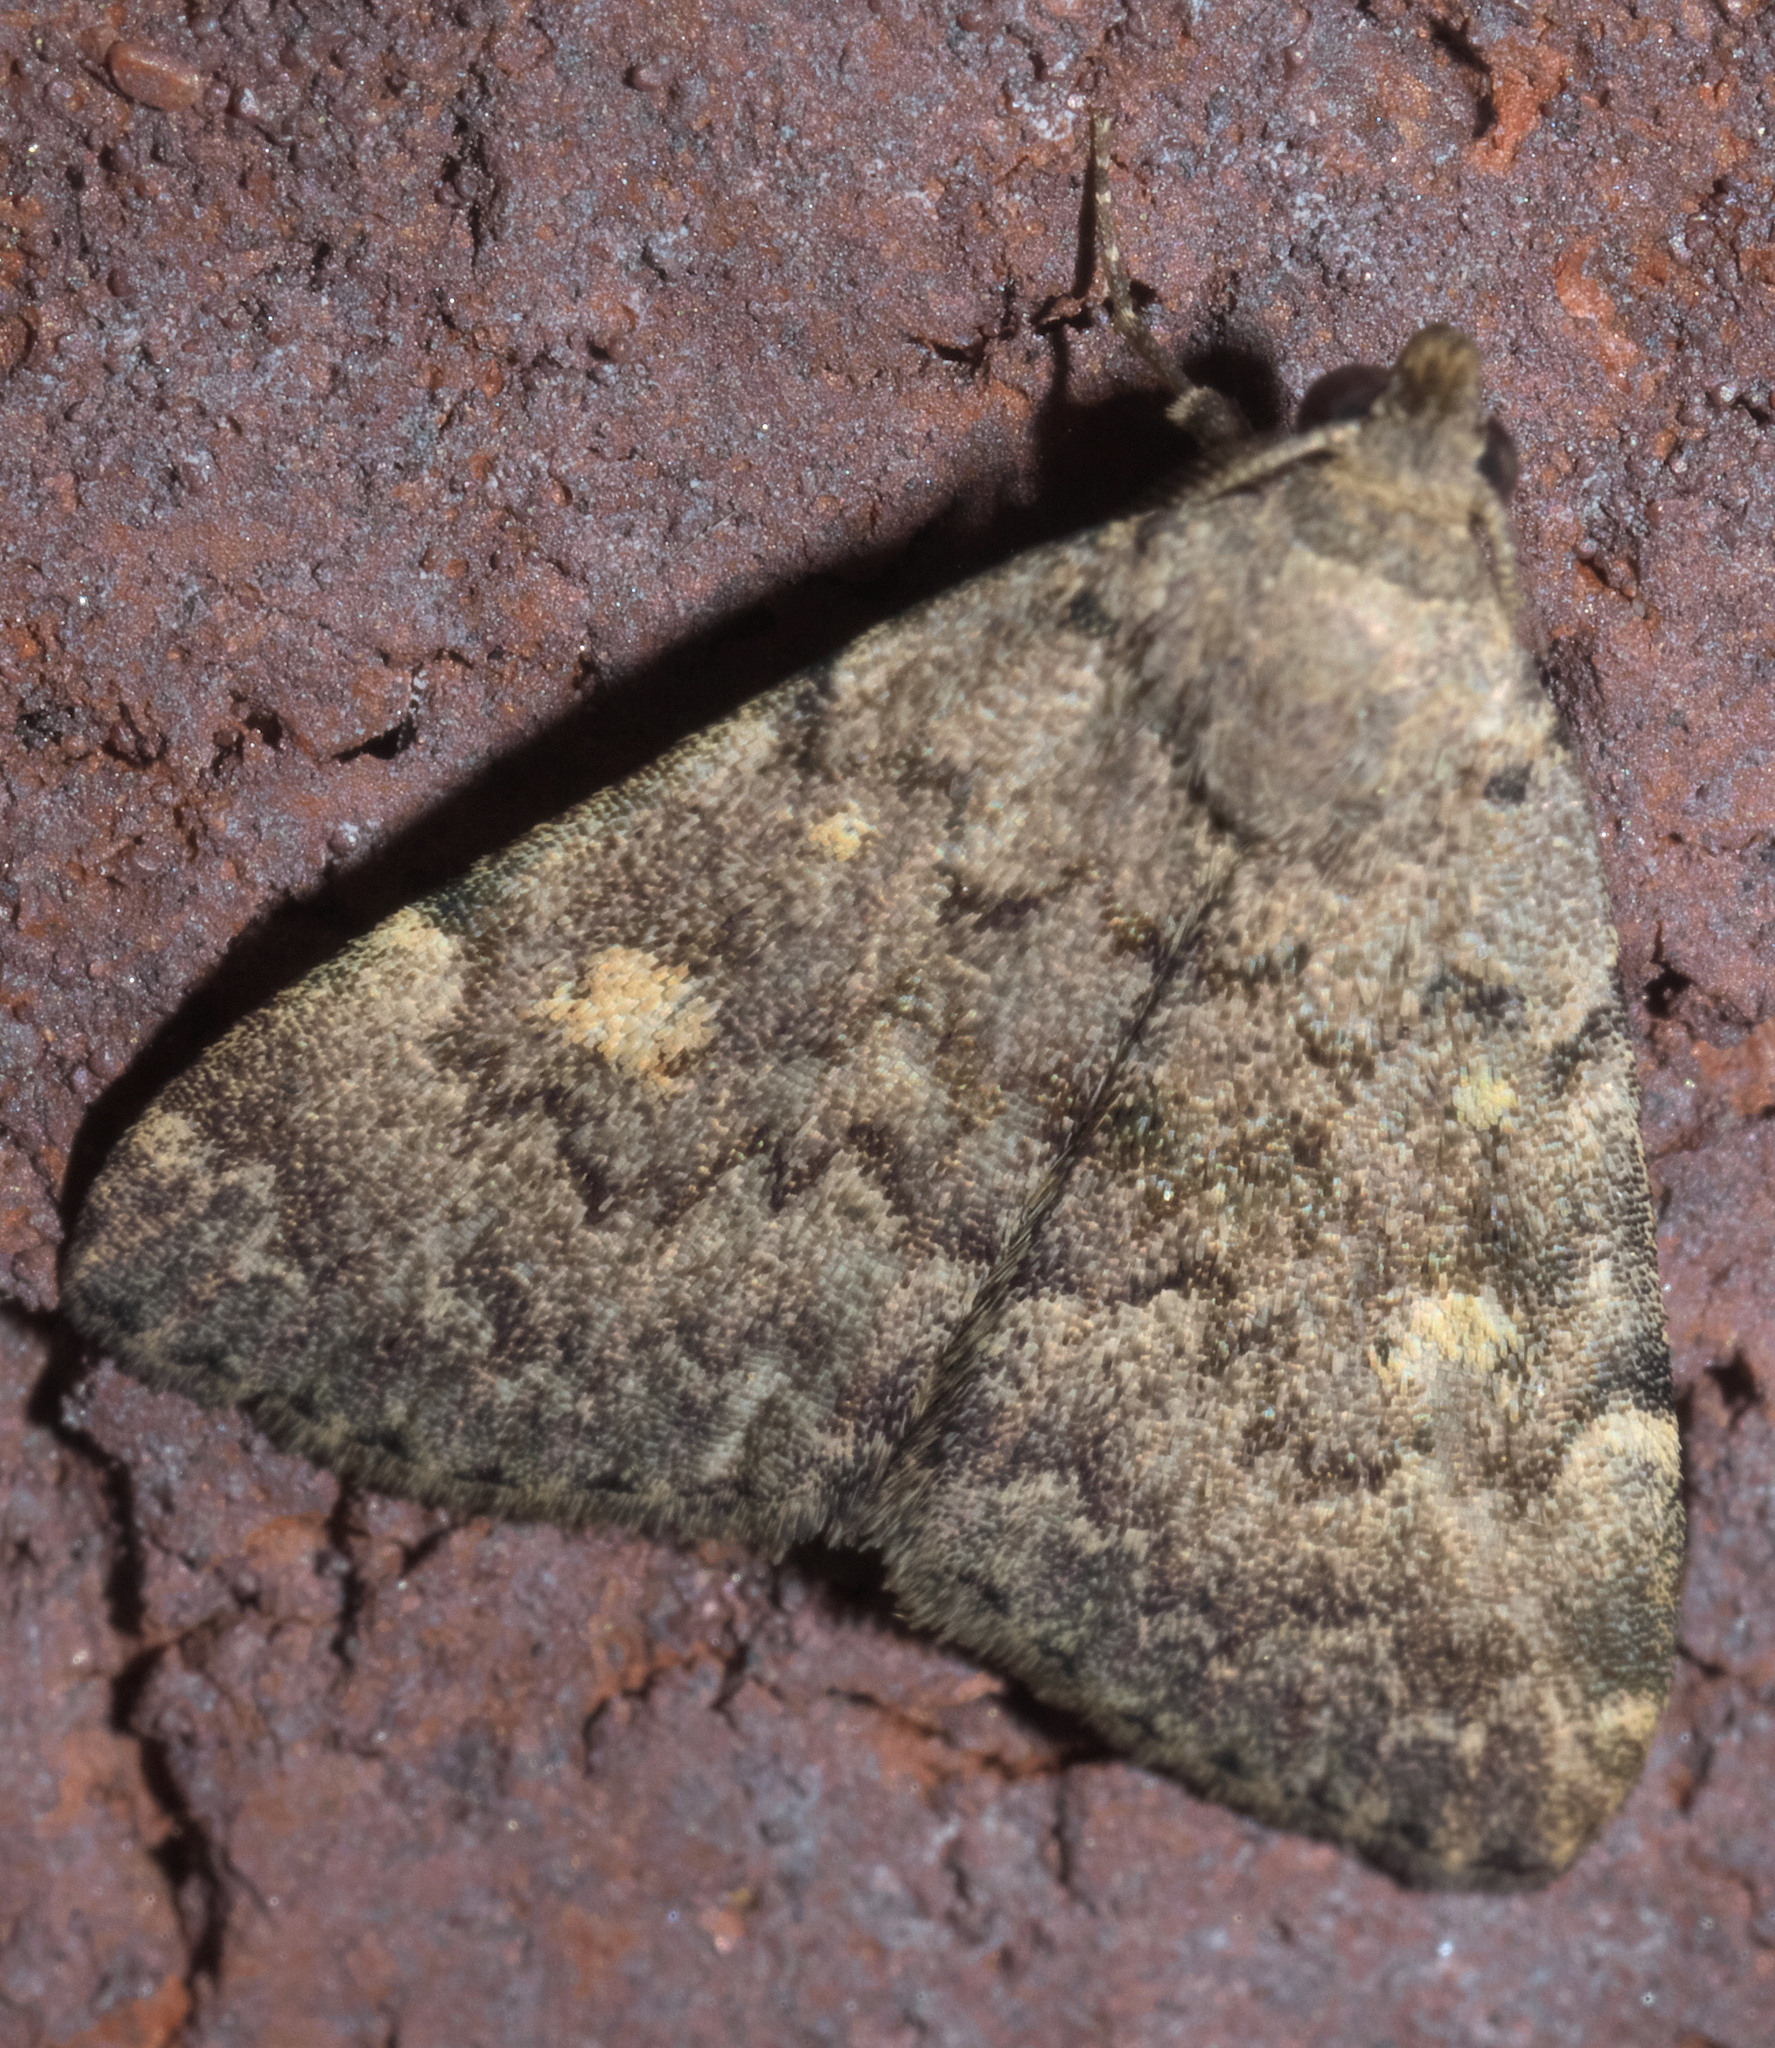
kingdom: Animalia
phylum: Arthropoda
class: Insecta
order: Lepidoptera
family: Erebidae
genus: Idia
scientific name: Idia aemula
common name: Common idia moth
